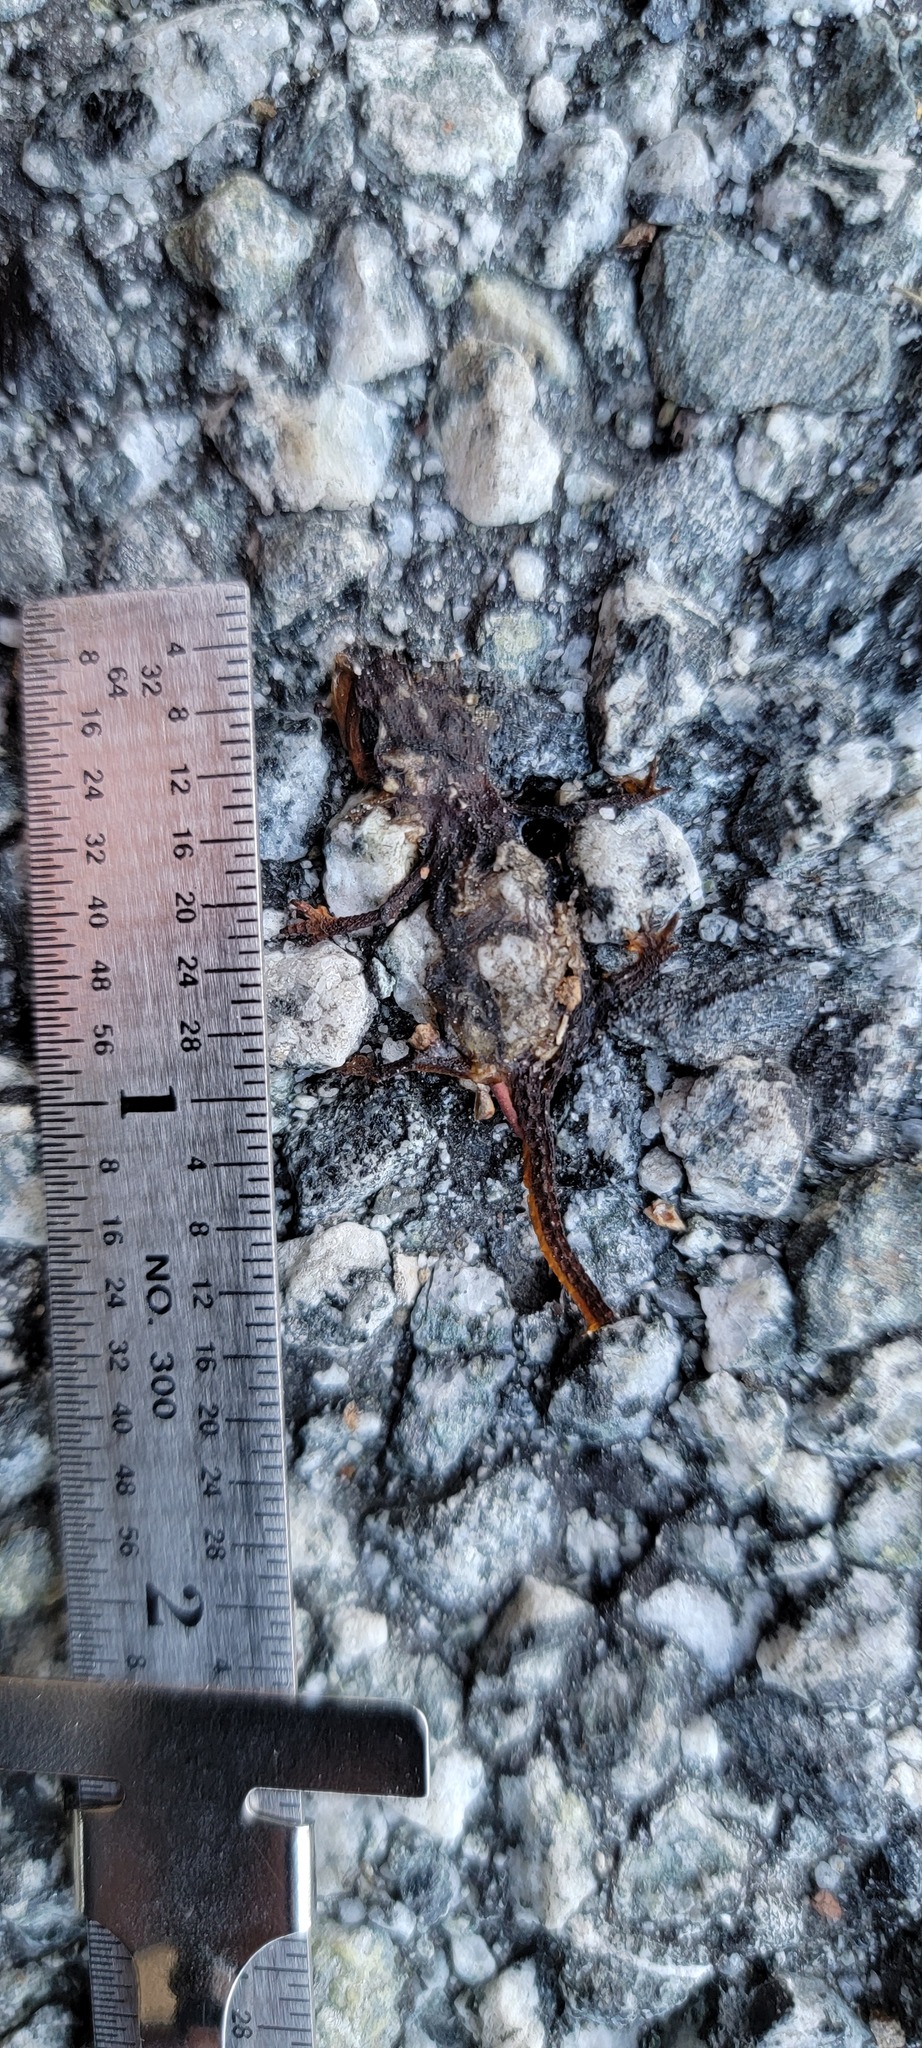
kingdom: Animalia
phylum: Chordata
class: Amphibia
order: Caudata
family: Salamandridae
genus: Taricha
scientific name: Taricha
